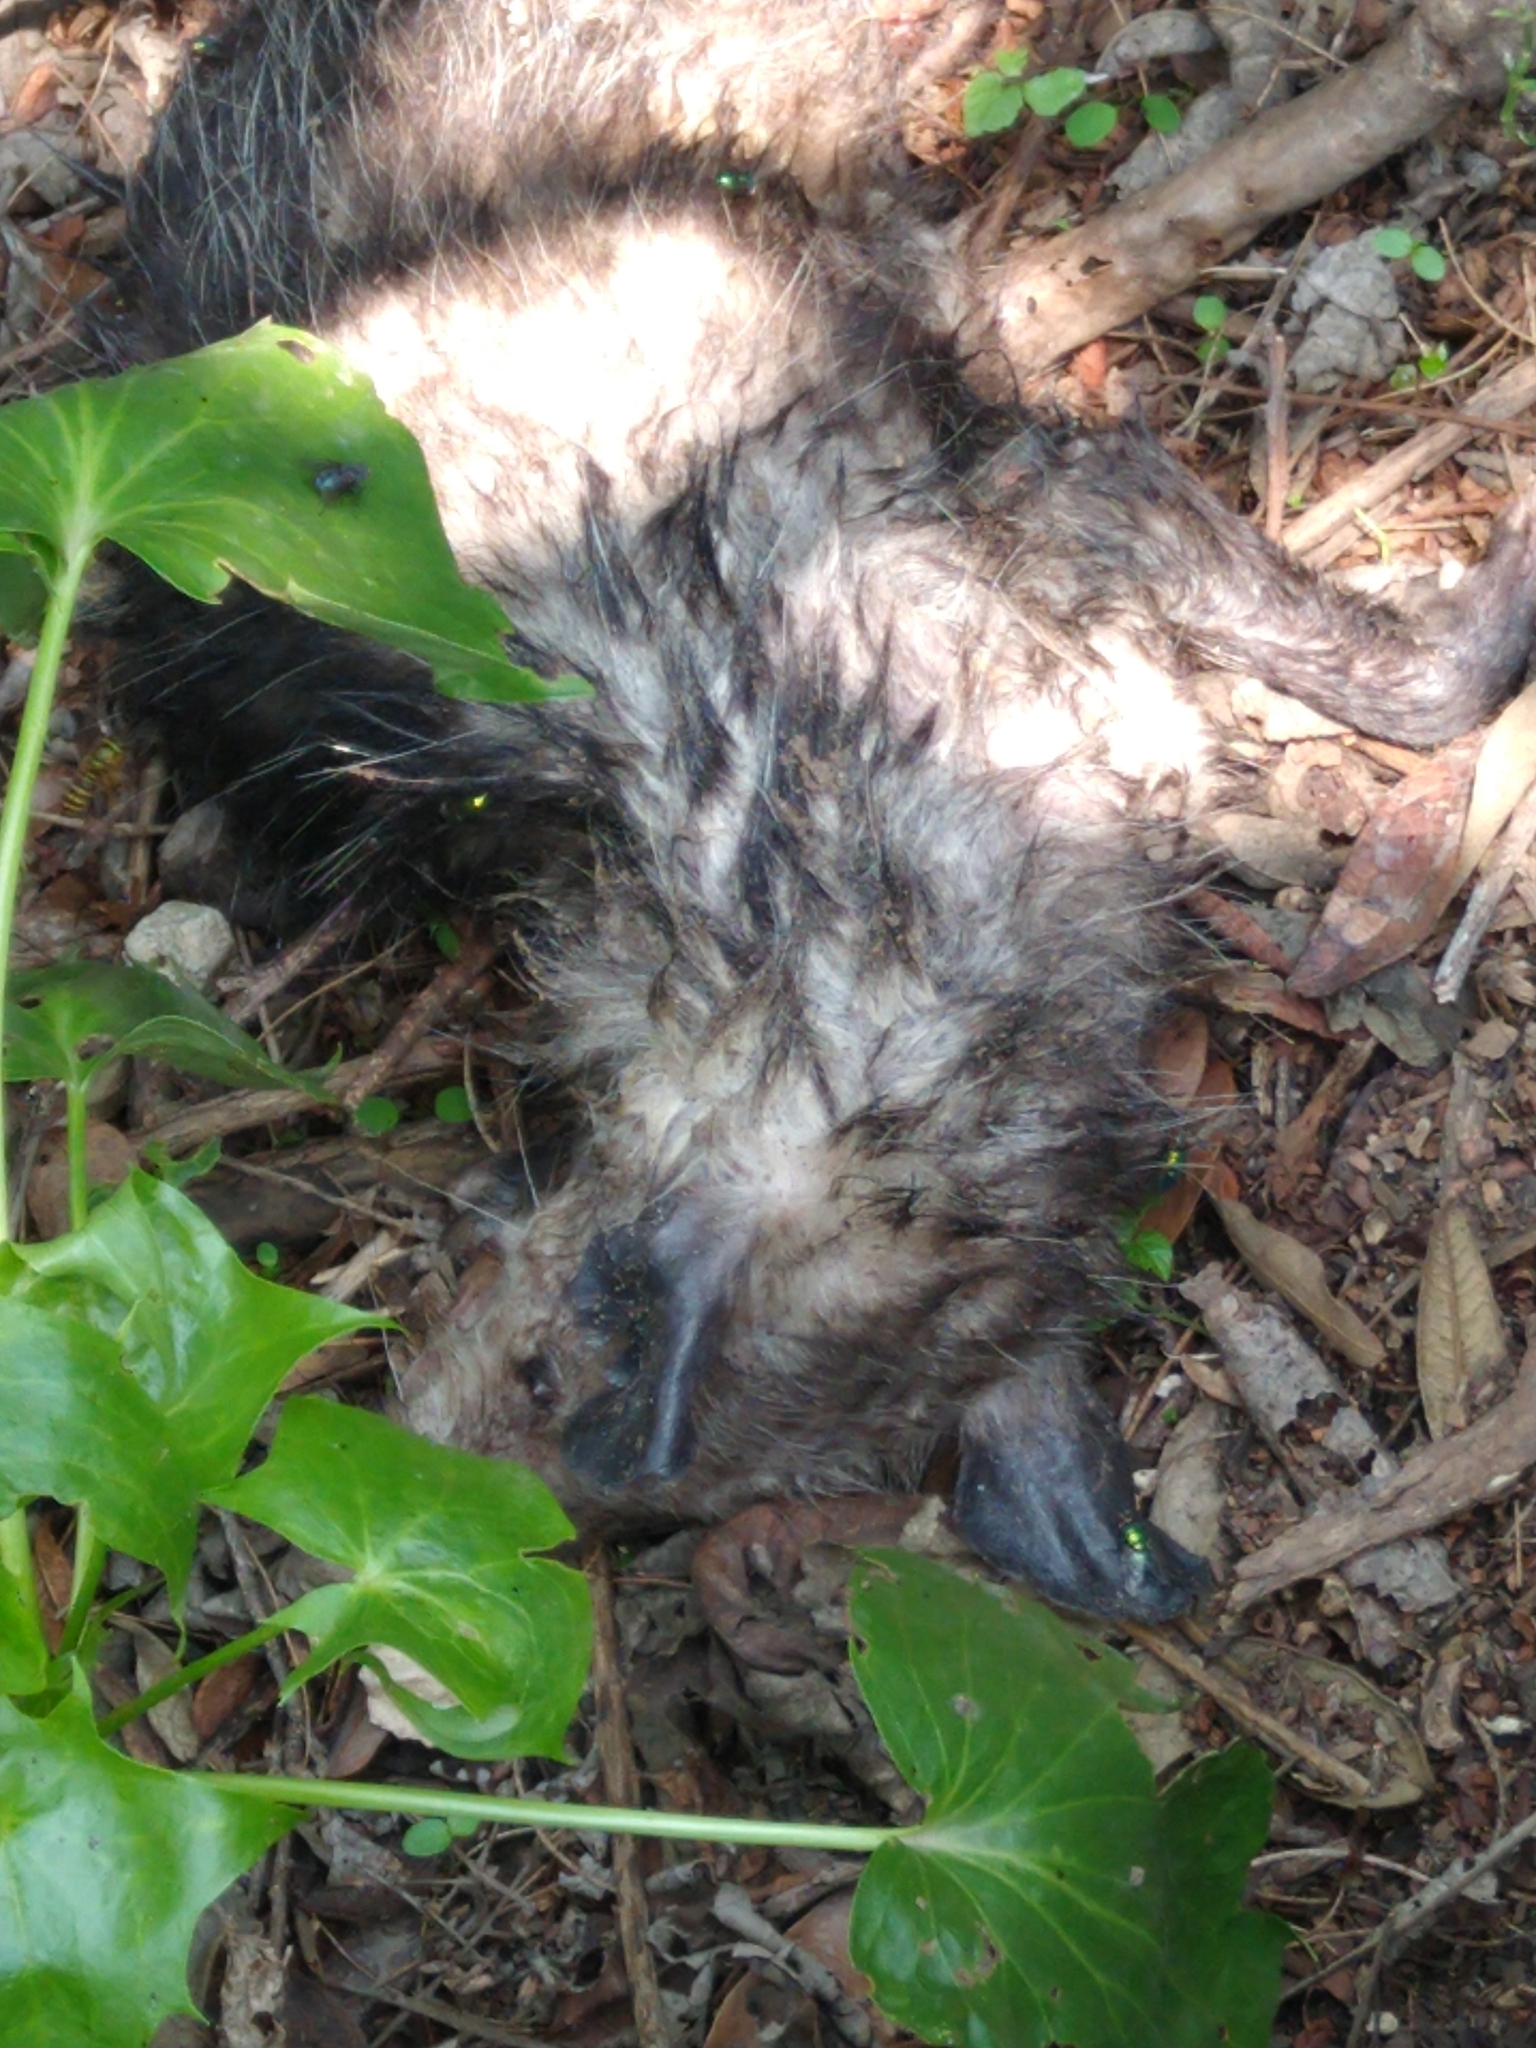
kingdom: Animalia
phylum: Chordata
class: Mammalia
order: Didelphimorphia
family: Didelphidae
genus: Didelphis
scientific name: Didelphis virginiana
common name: Virginia opossum
